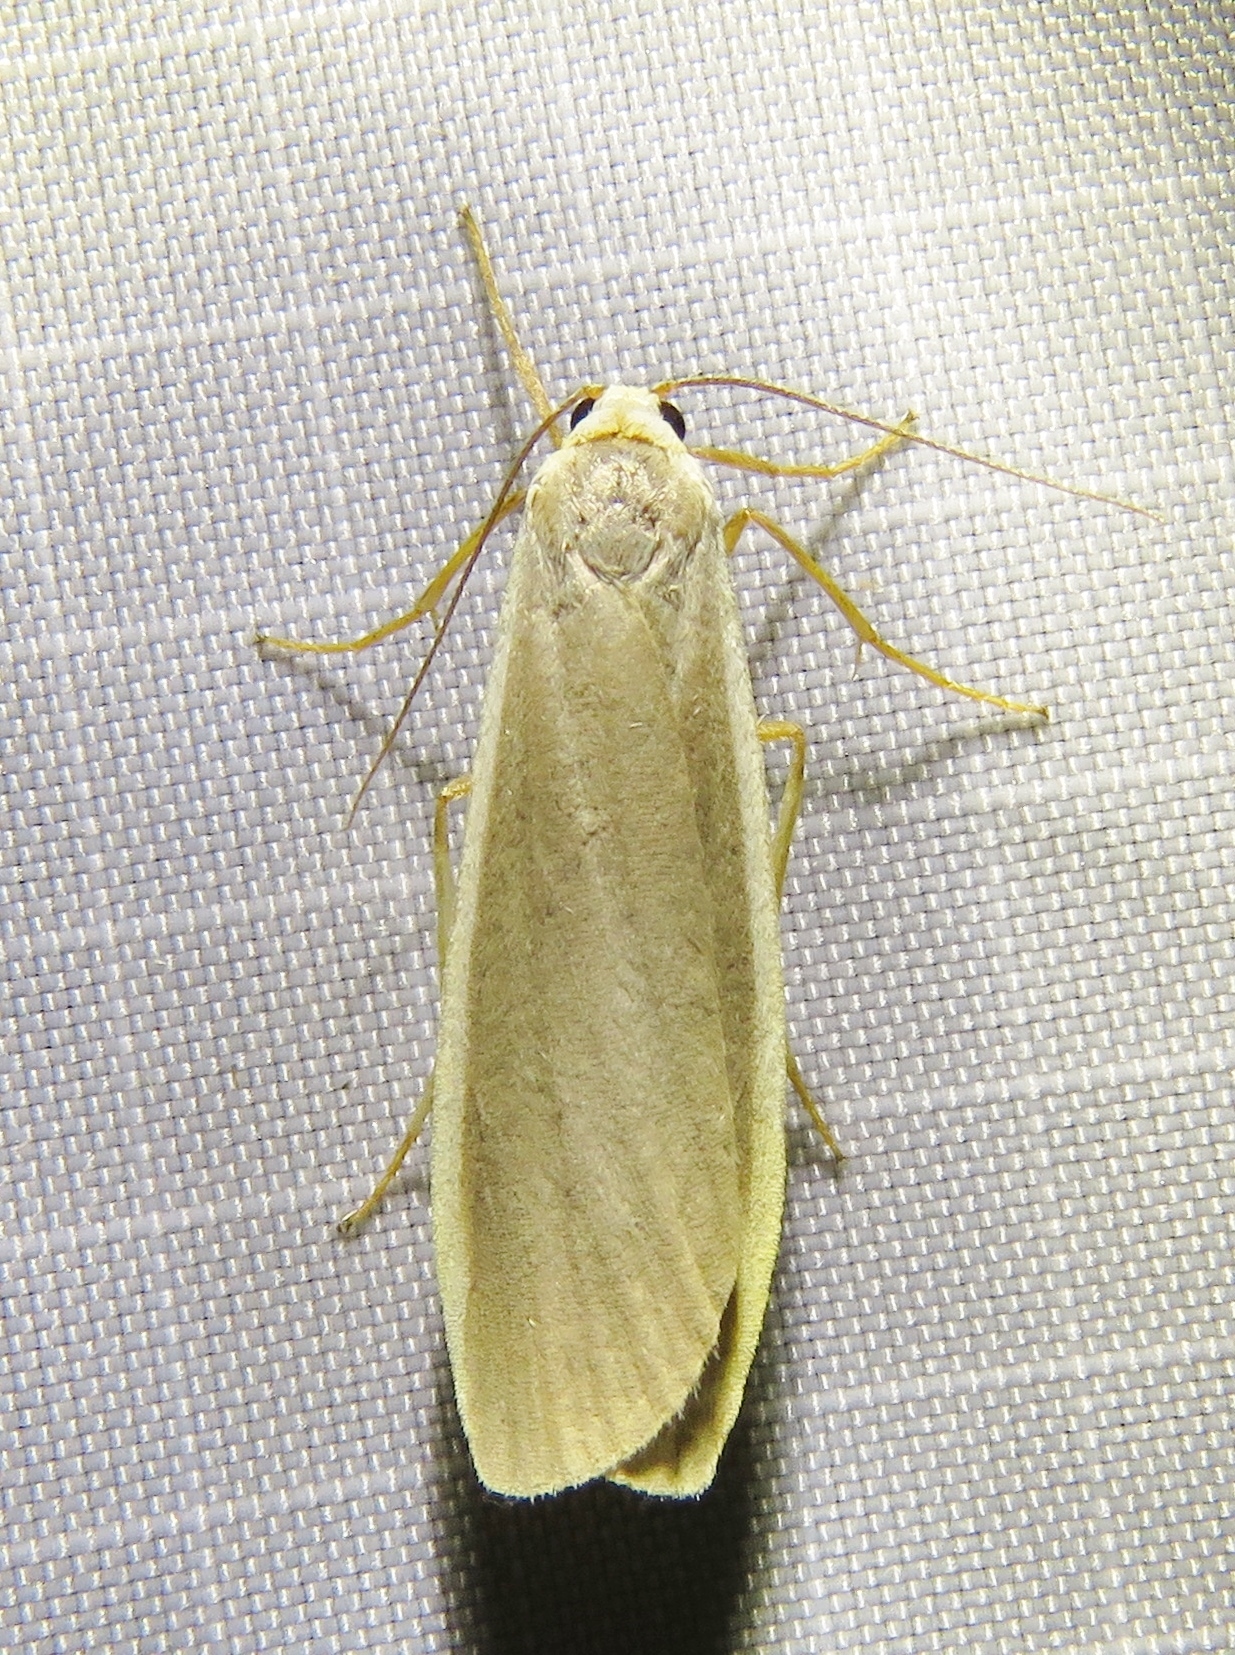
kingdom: Animalia
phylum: Arthropoda
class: Insecta
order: Lepidoptera
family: Erebidae
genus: Nyea
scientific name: Nyea lurideola
